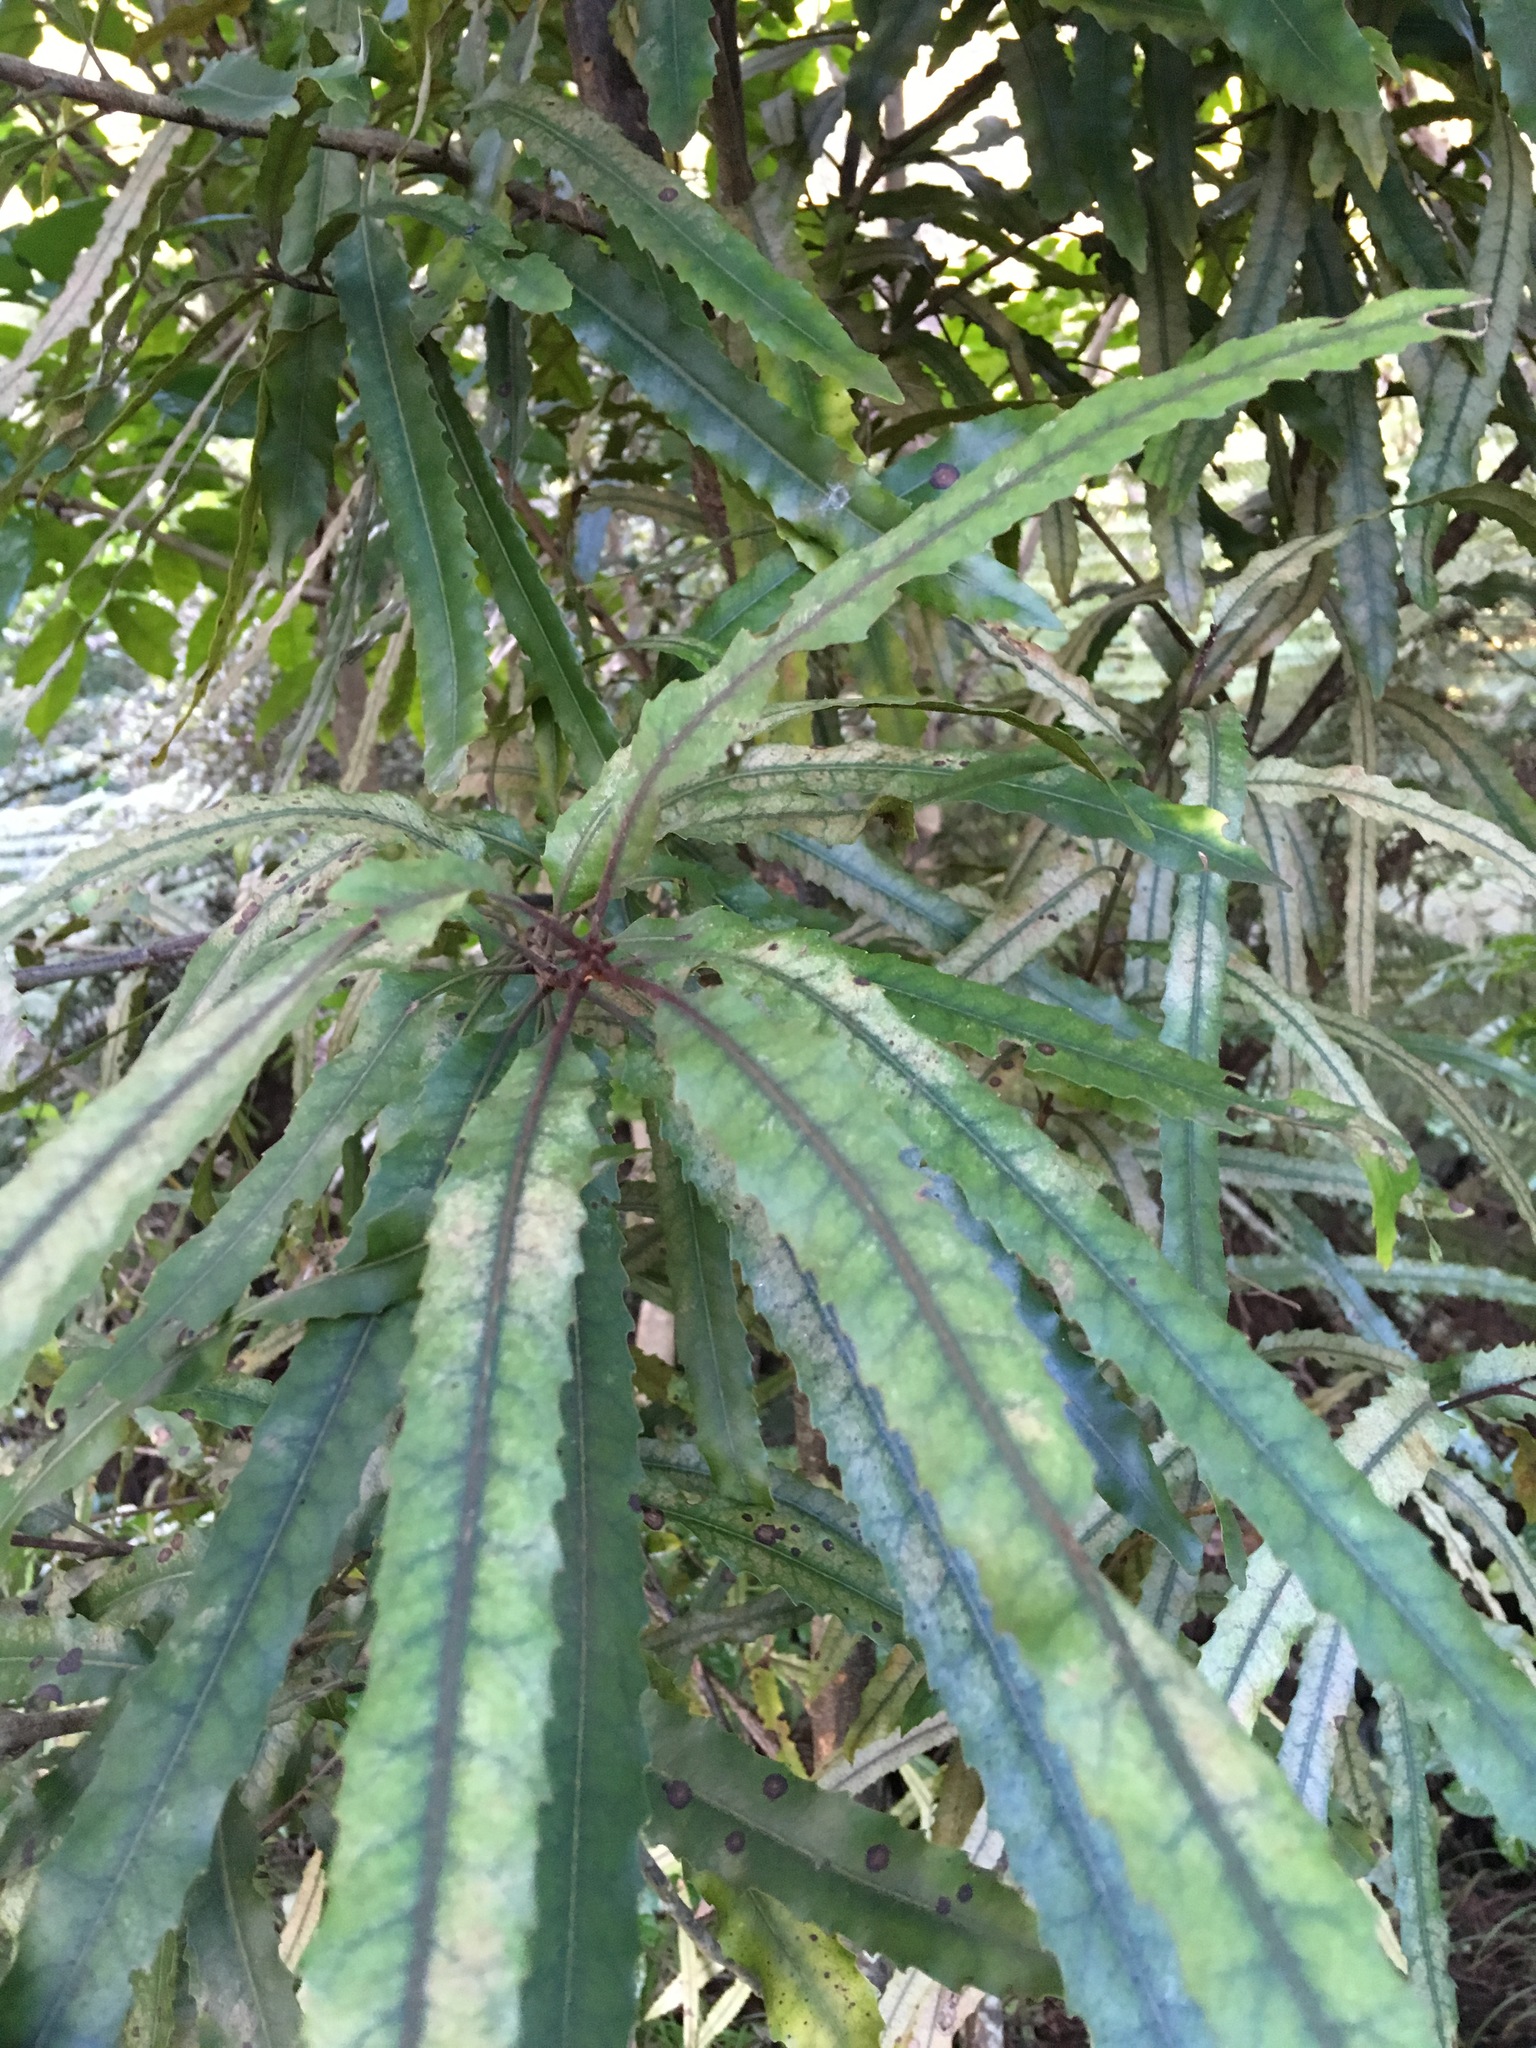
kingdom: Plantae
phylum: Tracheophyta
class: Magnoliopsida
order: Proteales
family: Proteaceae
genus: Knightia
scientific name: Knightia excelsa
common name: New zealand-honeysuckle
